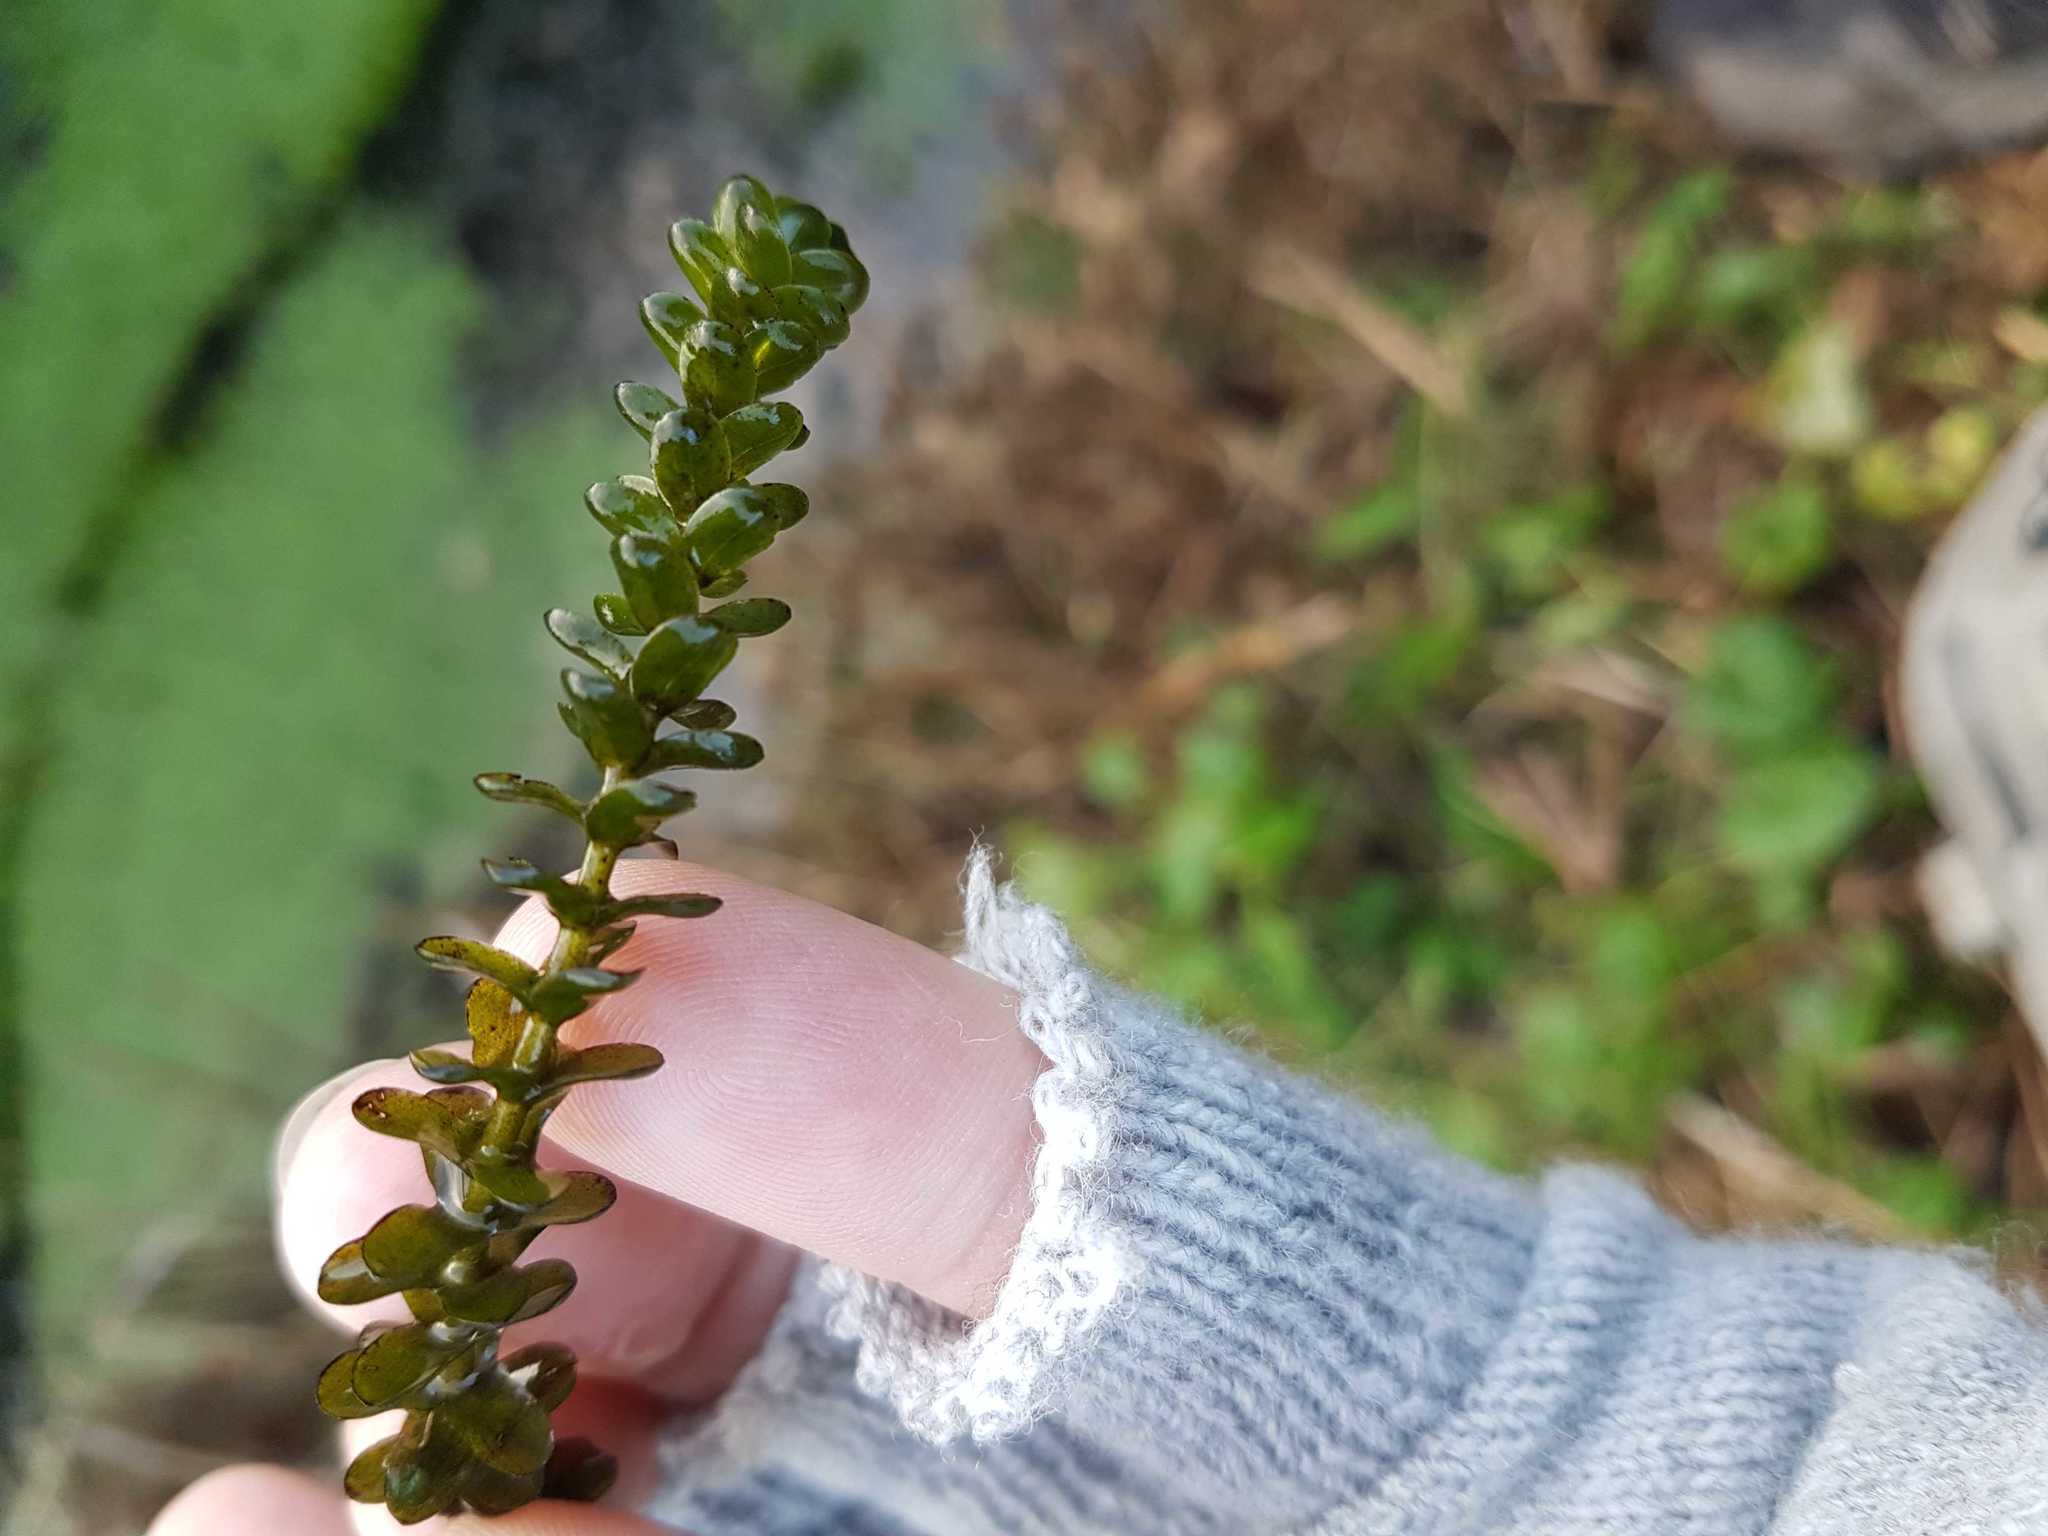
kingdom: Plantae
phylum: Tracheophyta
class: Liliopsida
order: Alismatales
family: Hydrocharitaceae
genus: Elodea
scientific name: Elodea canadensis
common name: Canadian waterweed
